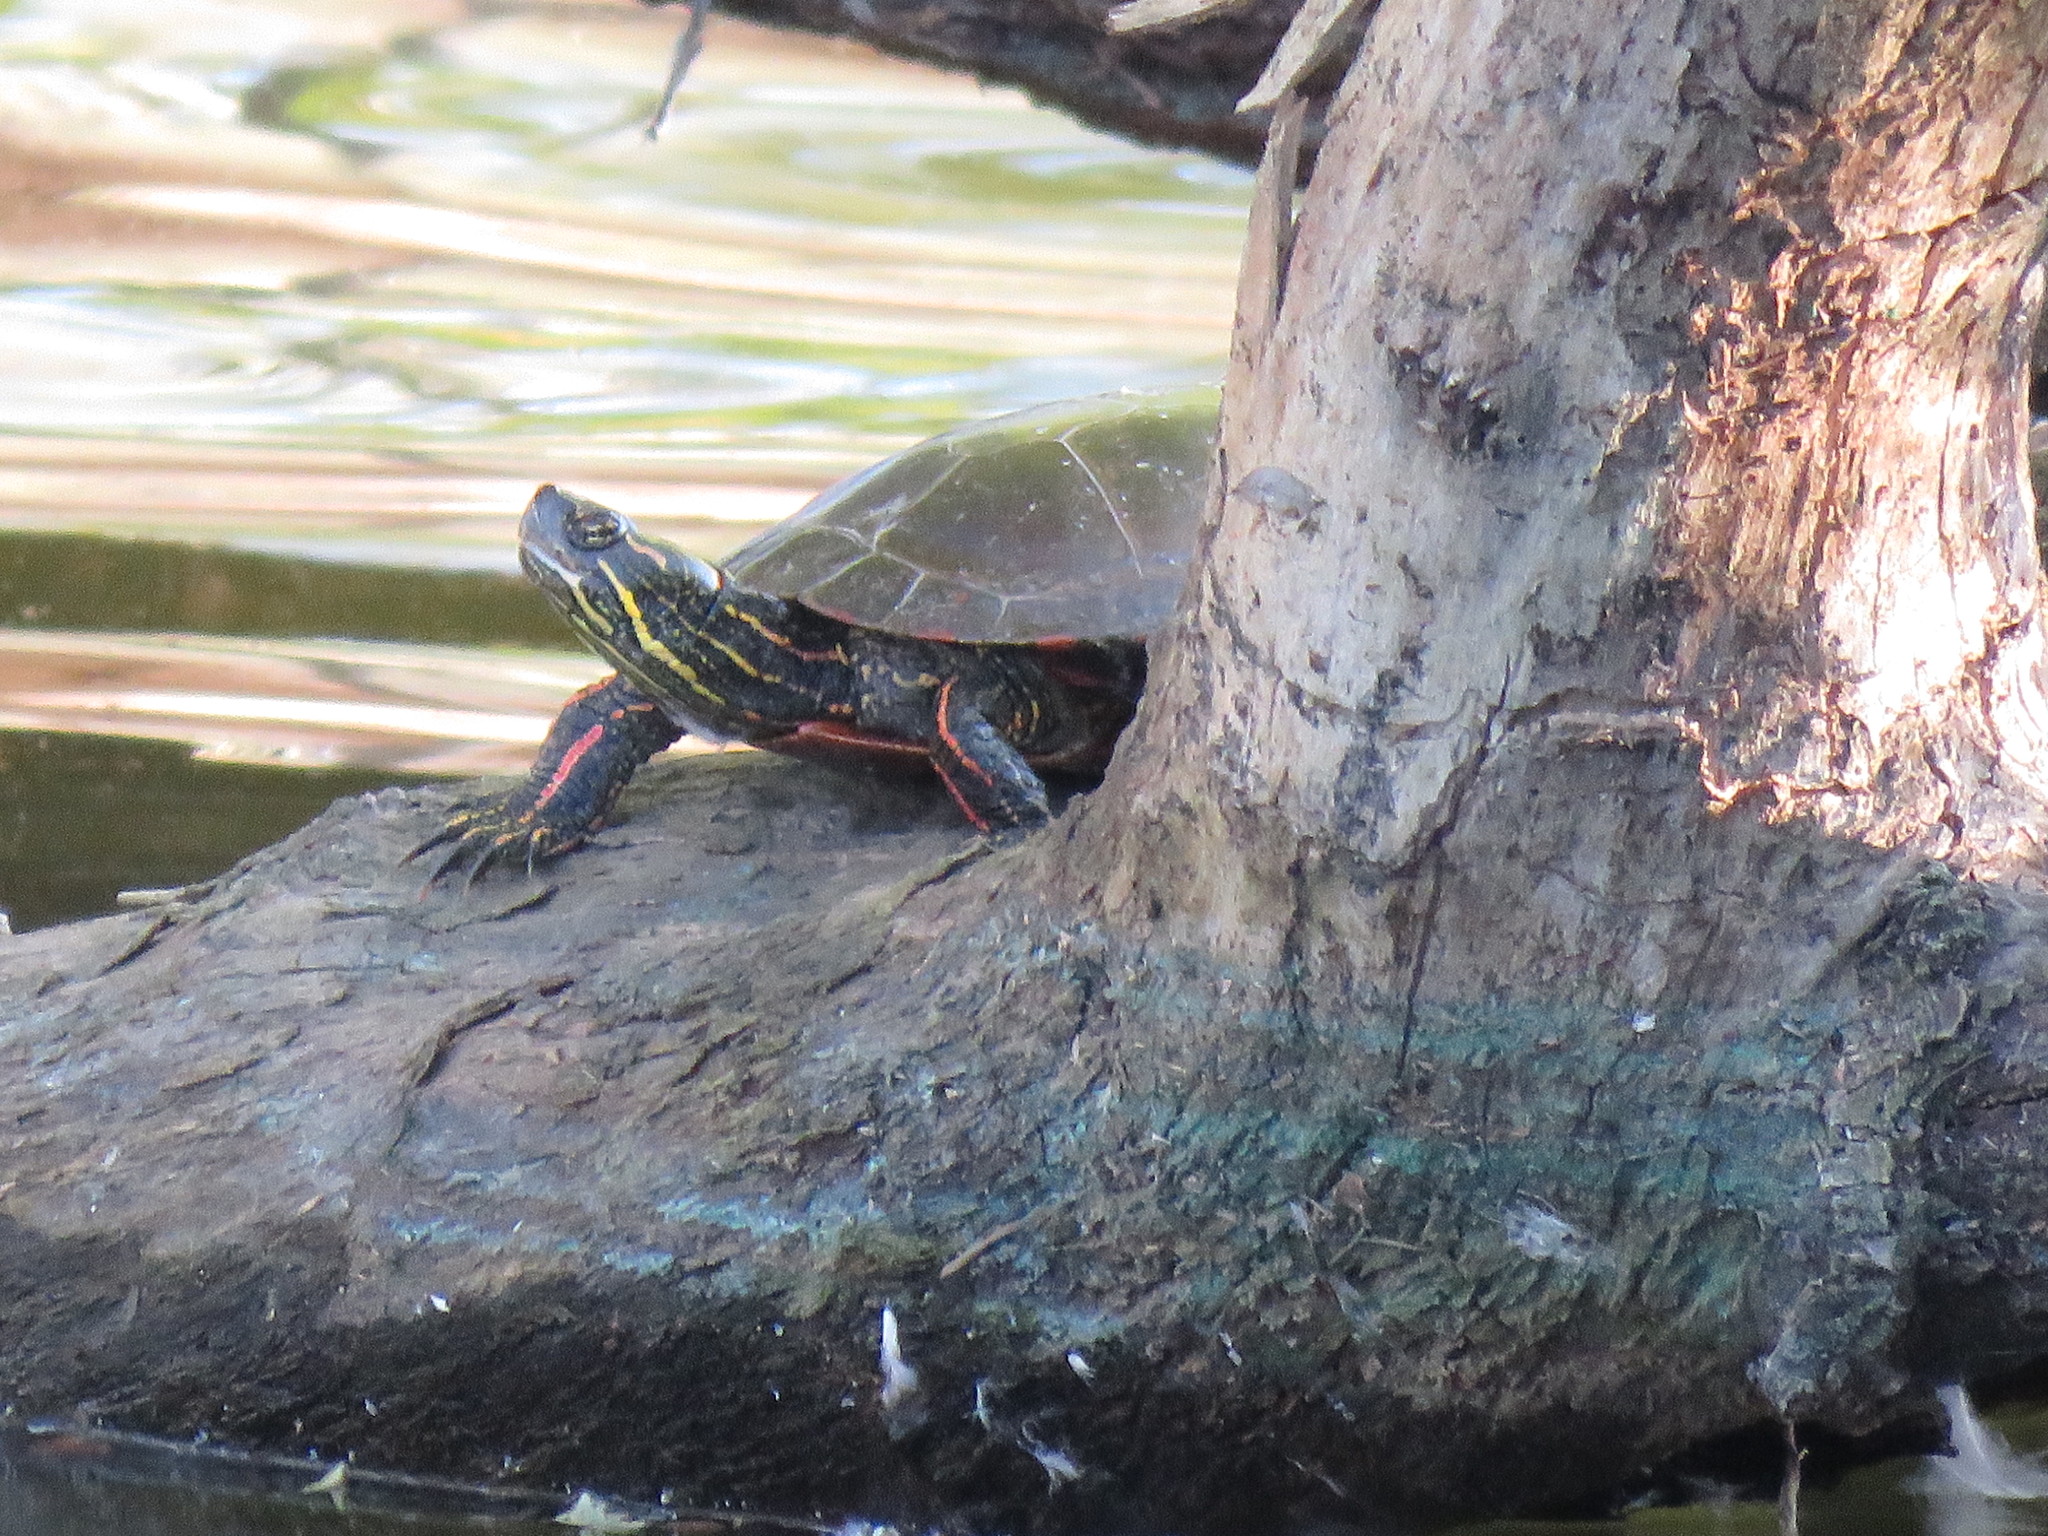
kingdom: Animalia
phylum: Chordata
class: Testudines
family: Emydidae
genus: Chrysemys
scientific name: Chrysemys picta
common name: Painted turtle
